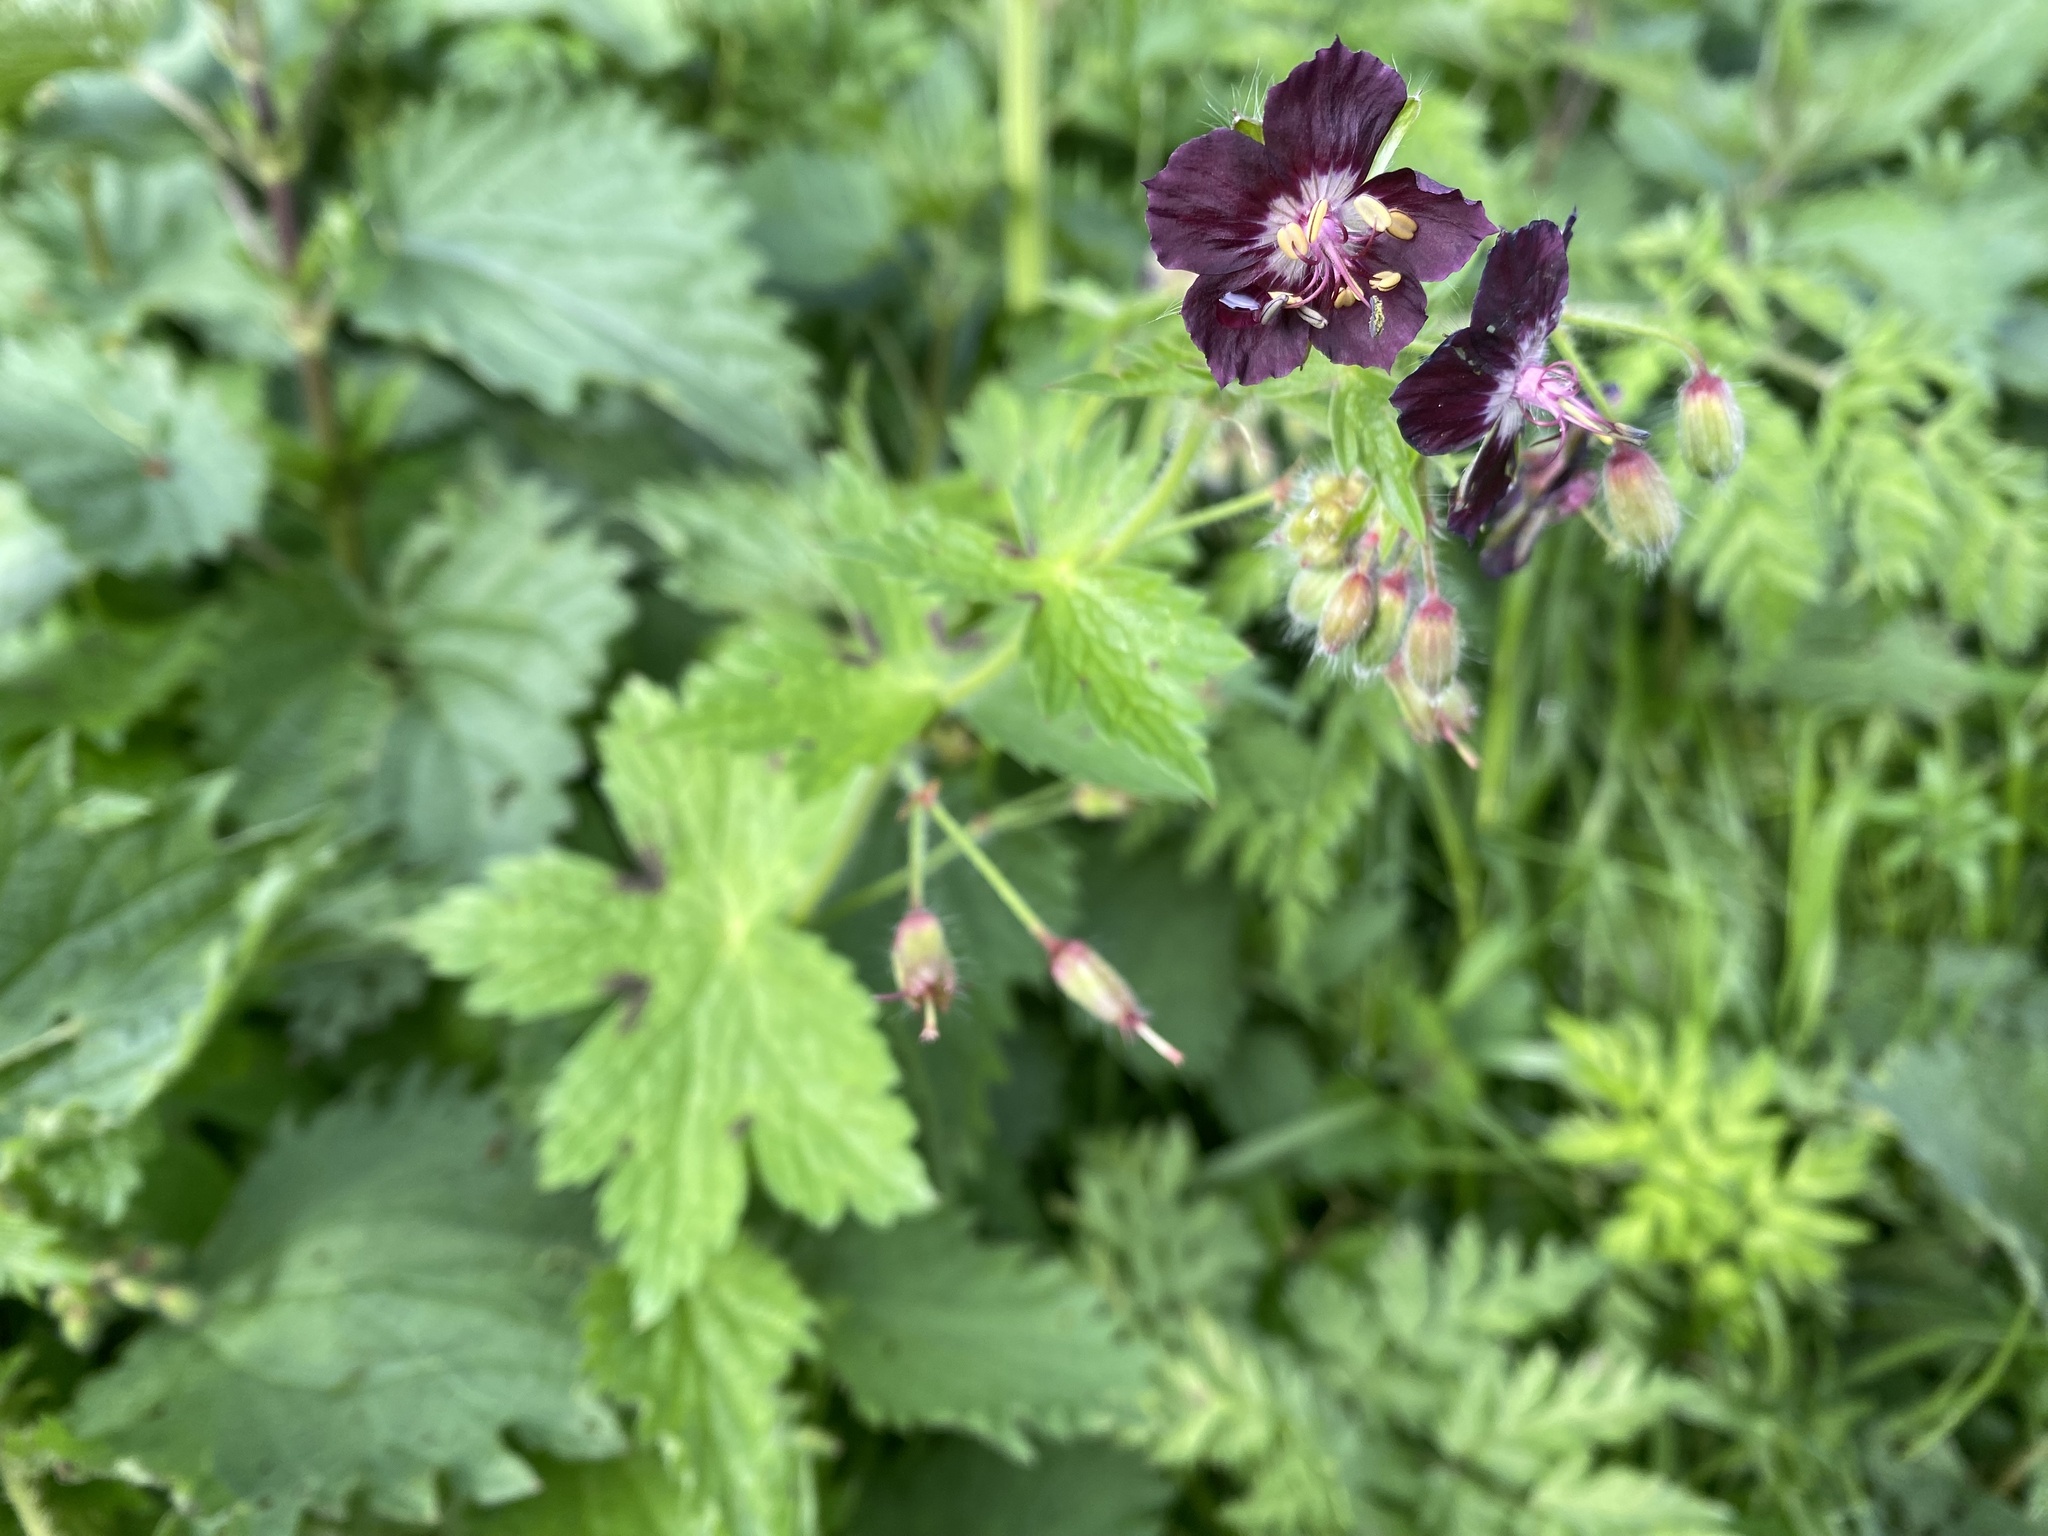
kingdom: Plantae
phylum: Tracheophyta
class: Magnoliopsida
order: Geraniales
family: Geraniaceae
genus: Geranium
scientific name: Geranium phaeum
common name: Dusky crane's-bill
